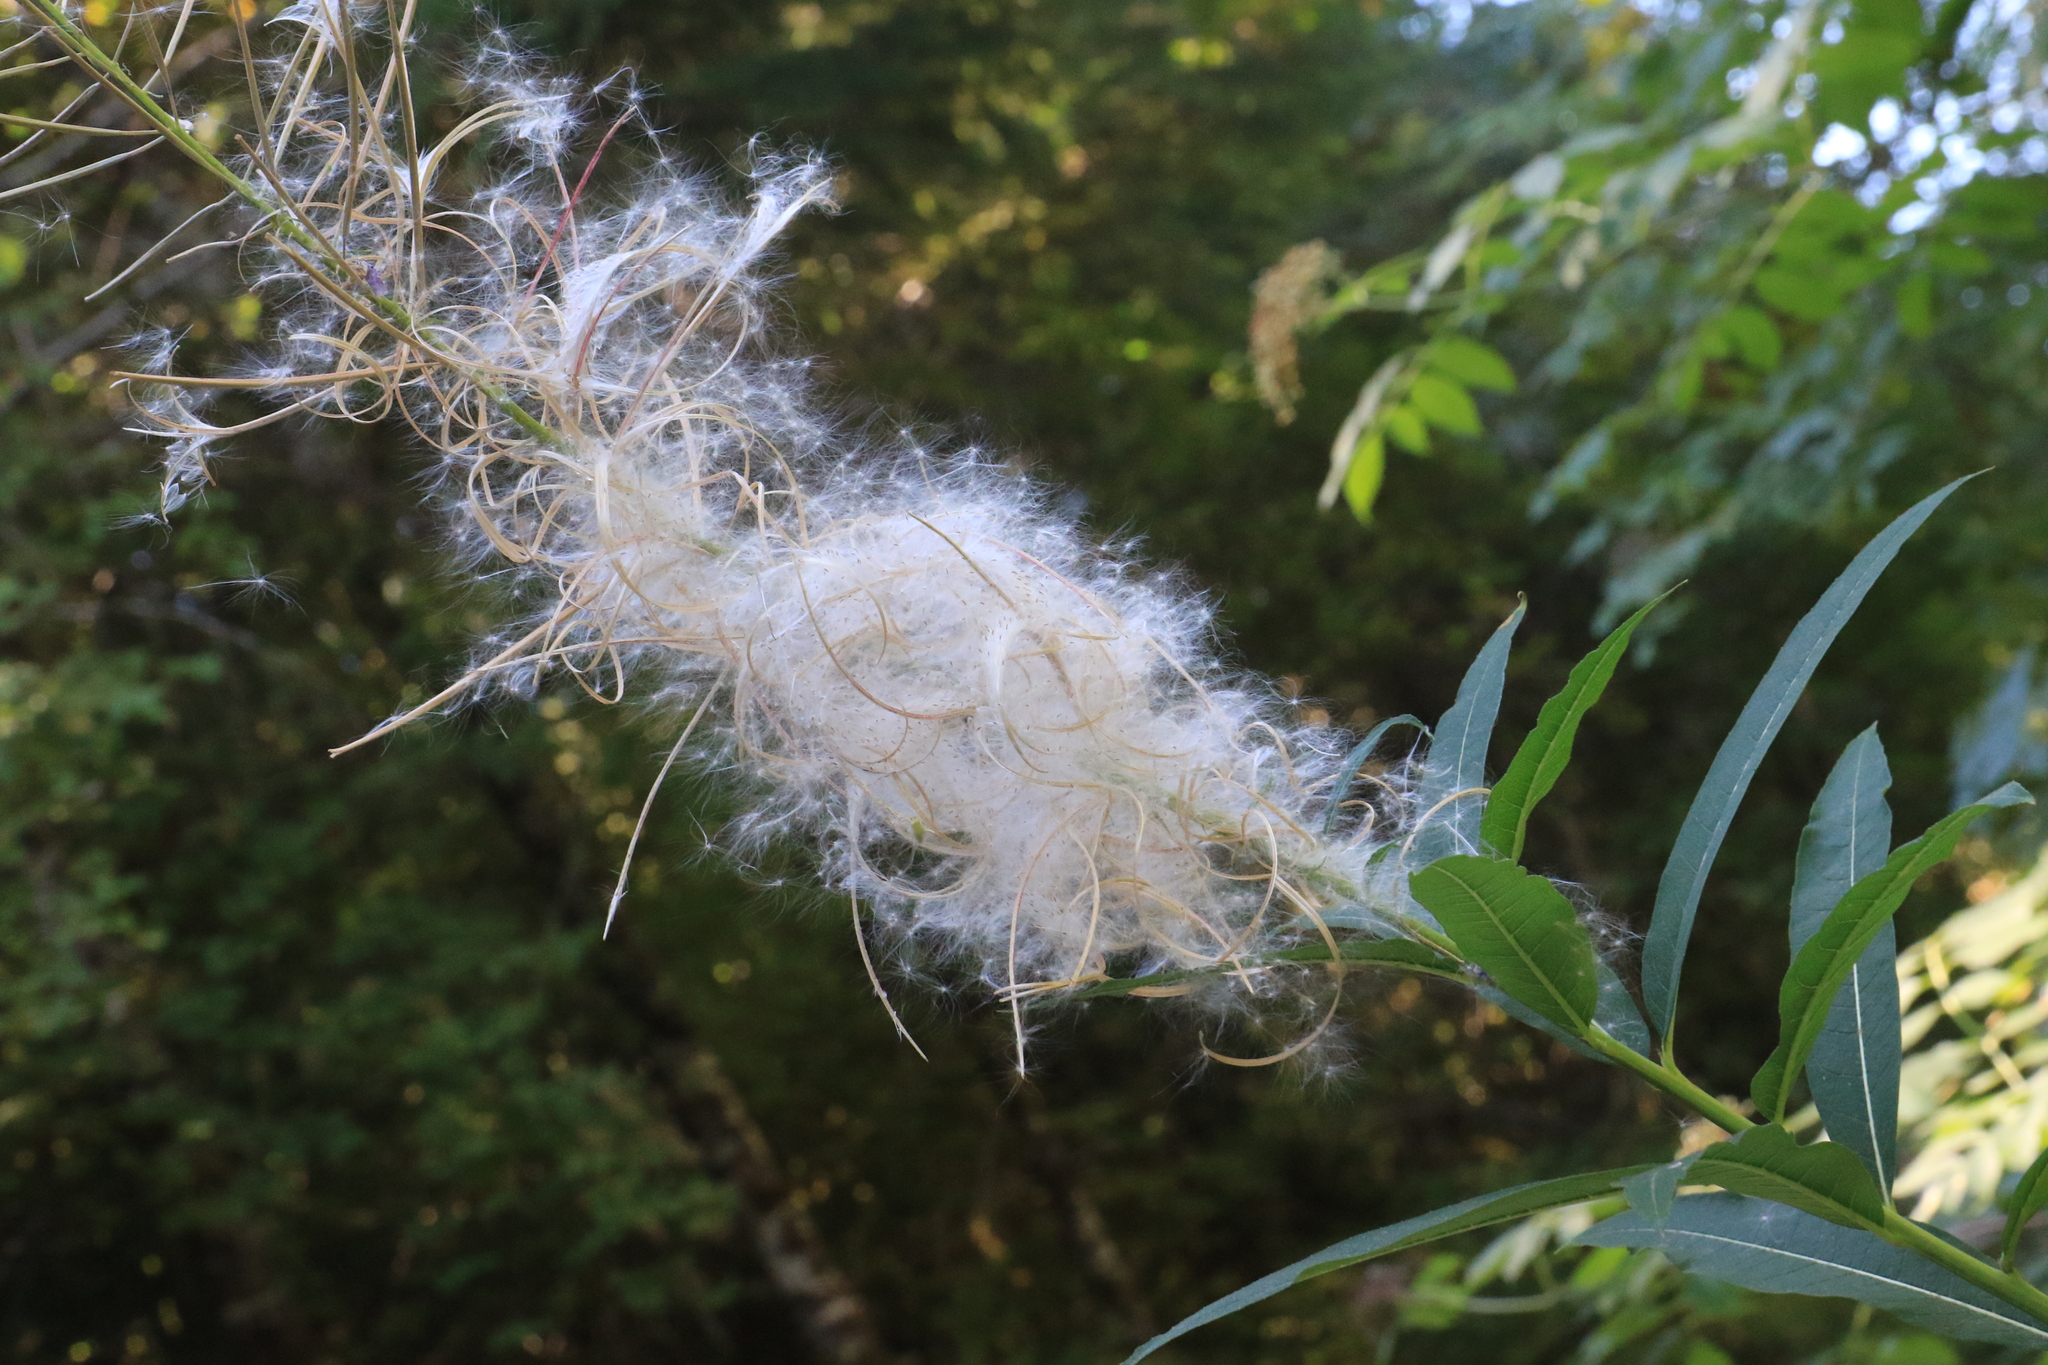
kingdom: Plantae
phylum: Tracheophyta
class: Magnoliopsida
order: Myrtales
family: Onagraceae
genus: Chamaenerion
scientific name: Chamaenerion angustifolium
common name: Fireweed
